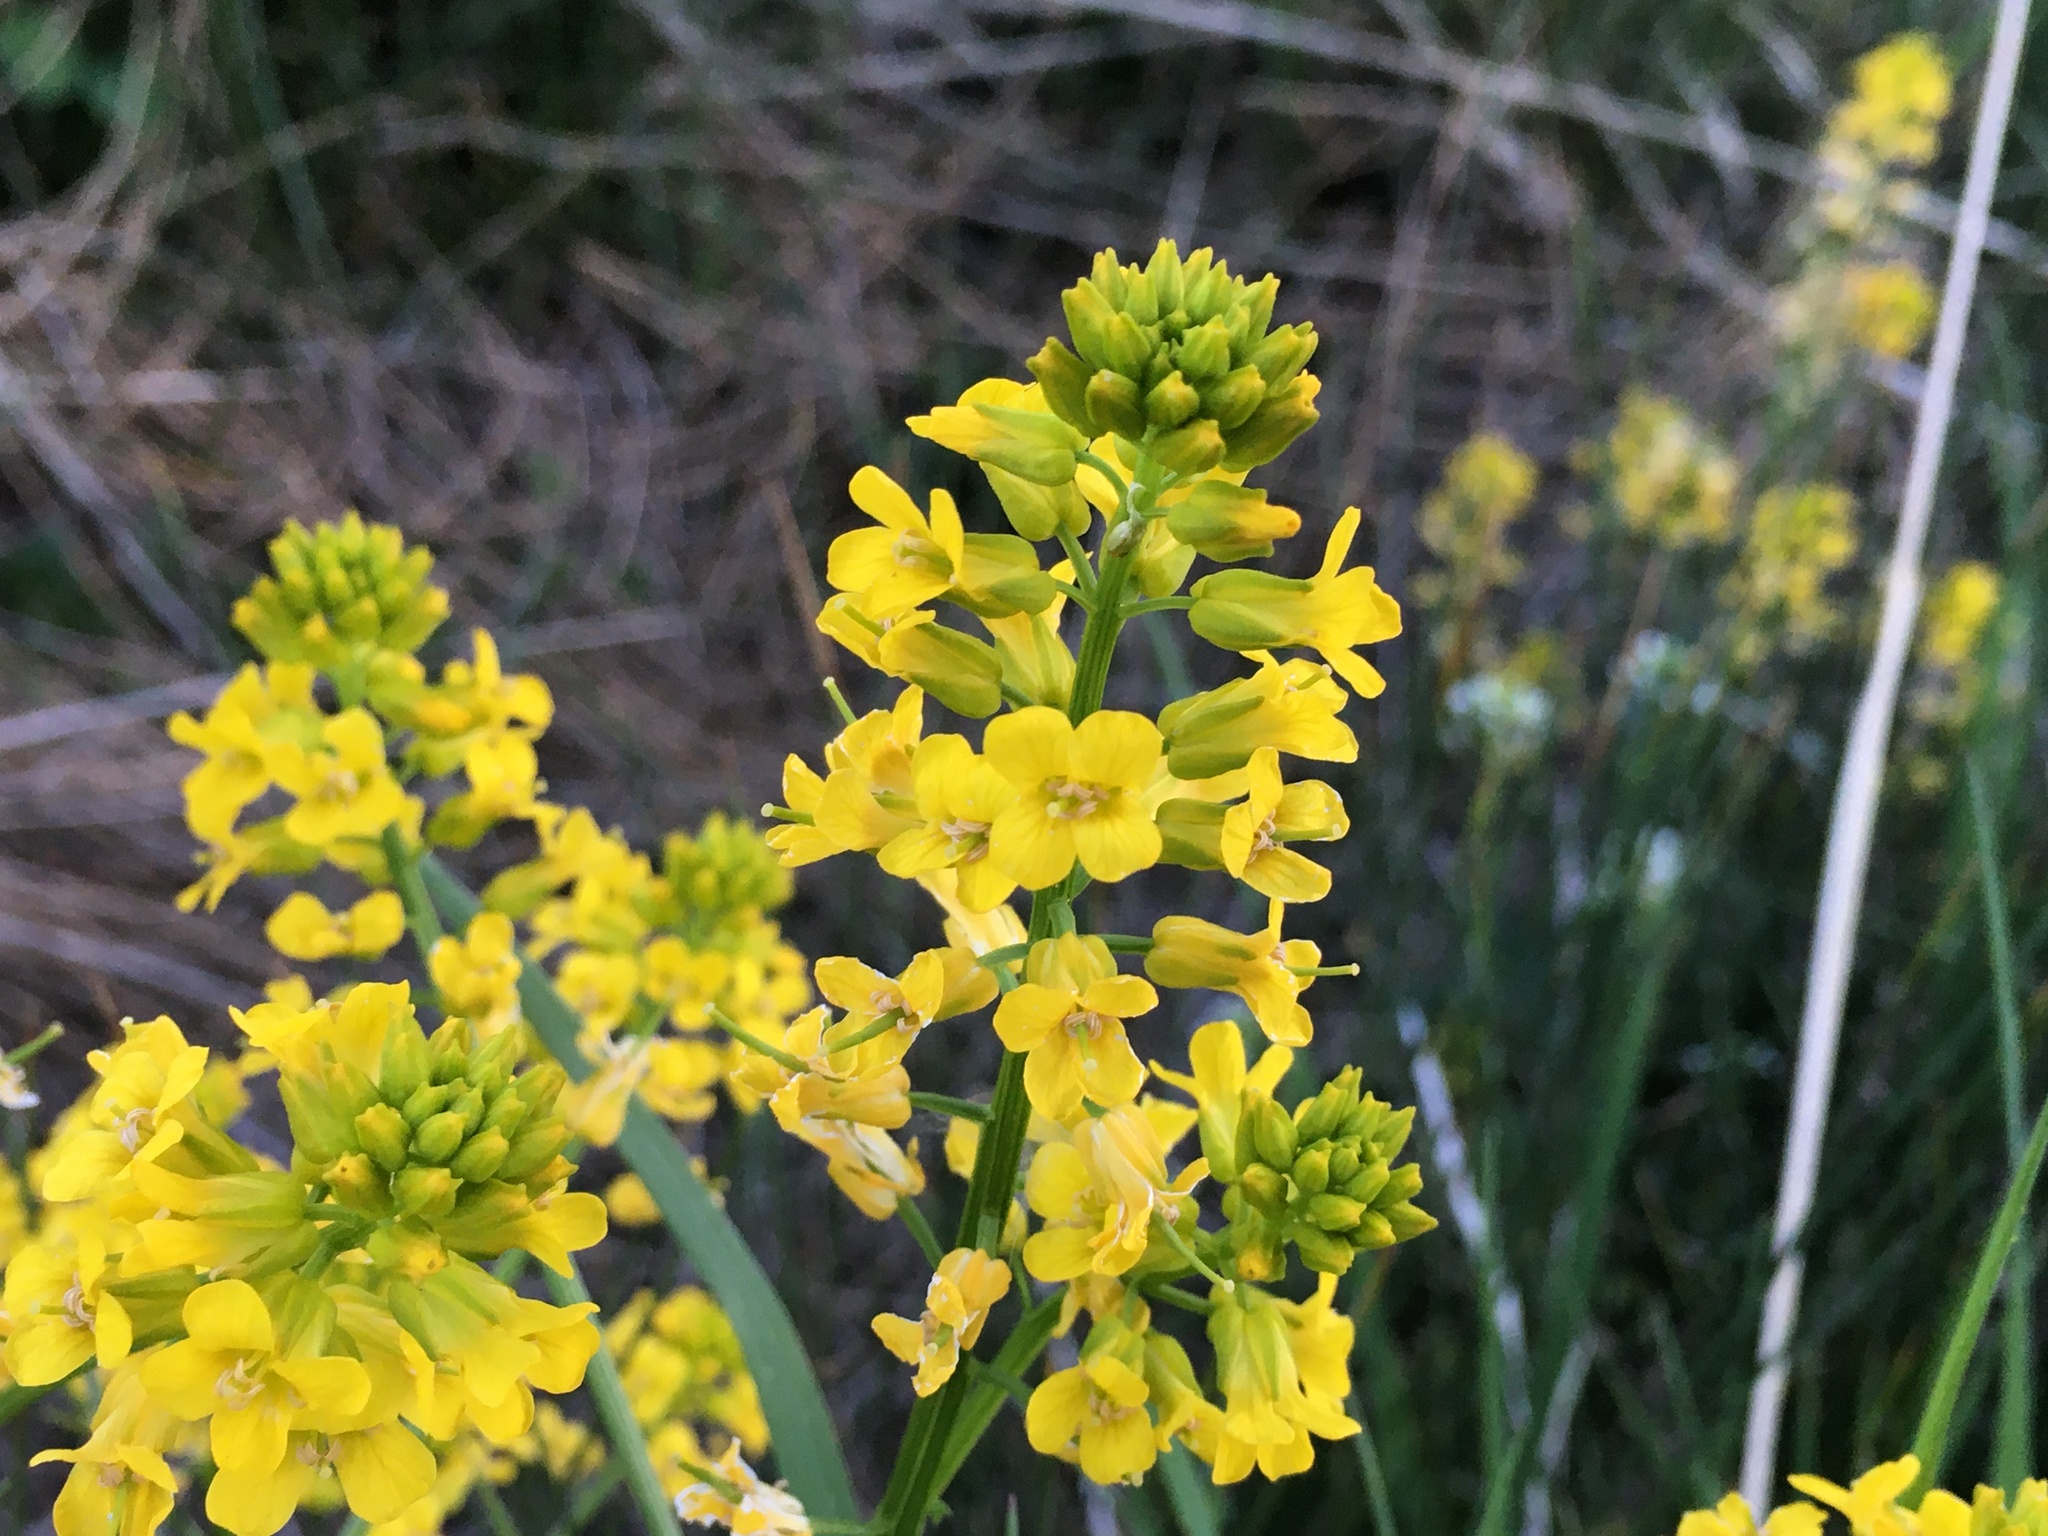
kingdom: Plantae
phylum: Tracheophyta
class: Magnoliopsida
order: Brassicales
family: Brassicaceae
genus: Barbarea
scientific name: Barbarea vulgaris
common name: Cressy-greens
